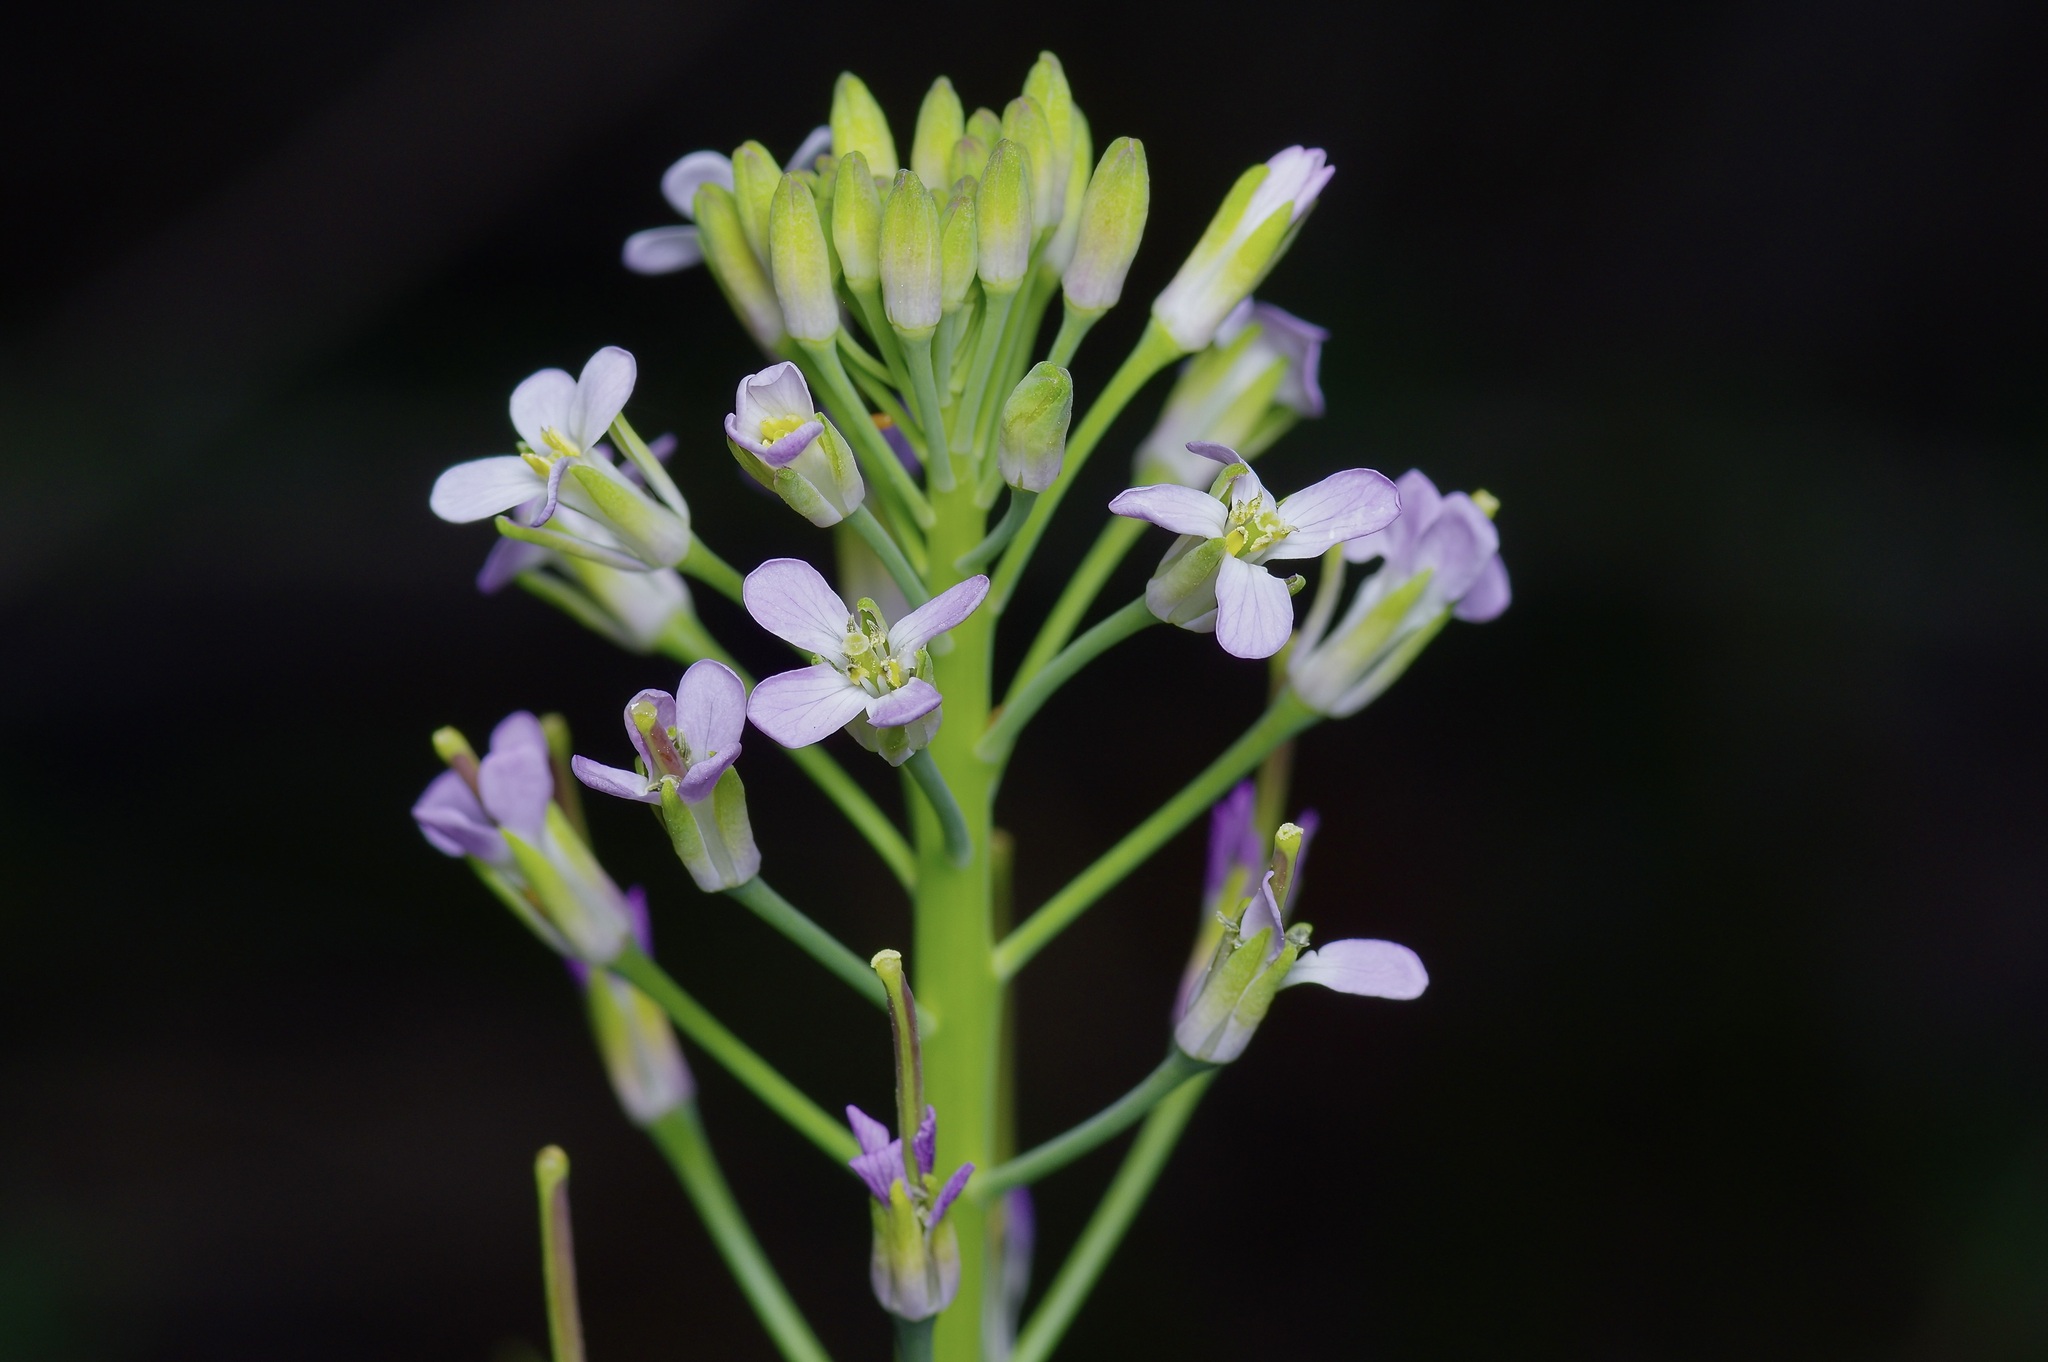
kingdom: Plantae
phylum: Tracheophyta
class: Magnoliopsida
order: Brassicales
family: Brassicaceae
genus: Streptanthus
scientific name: Streptanthus petiolaris
